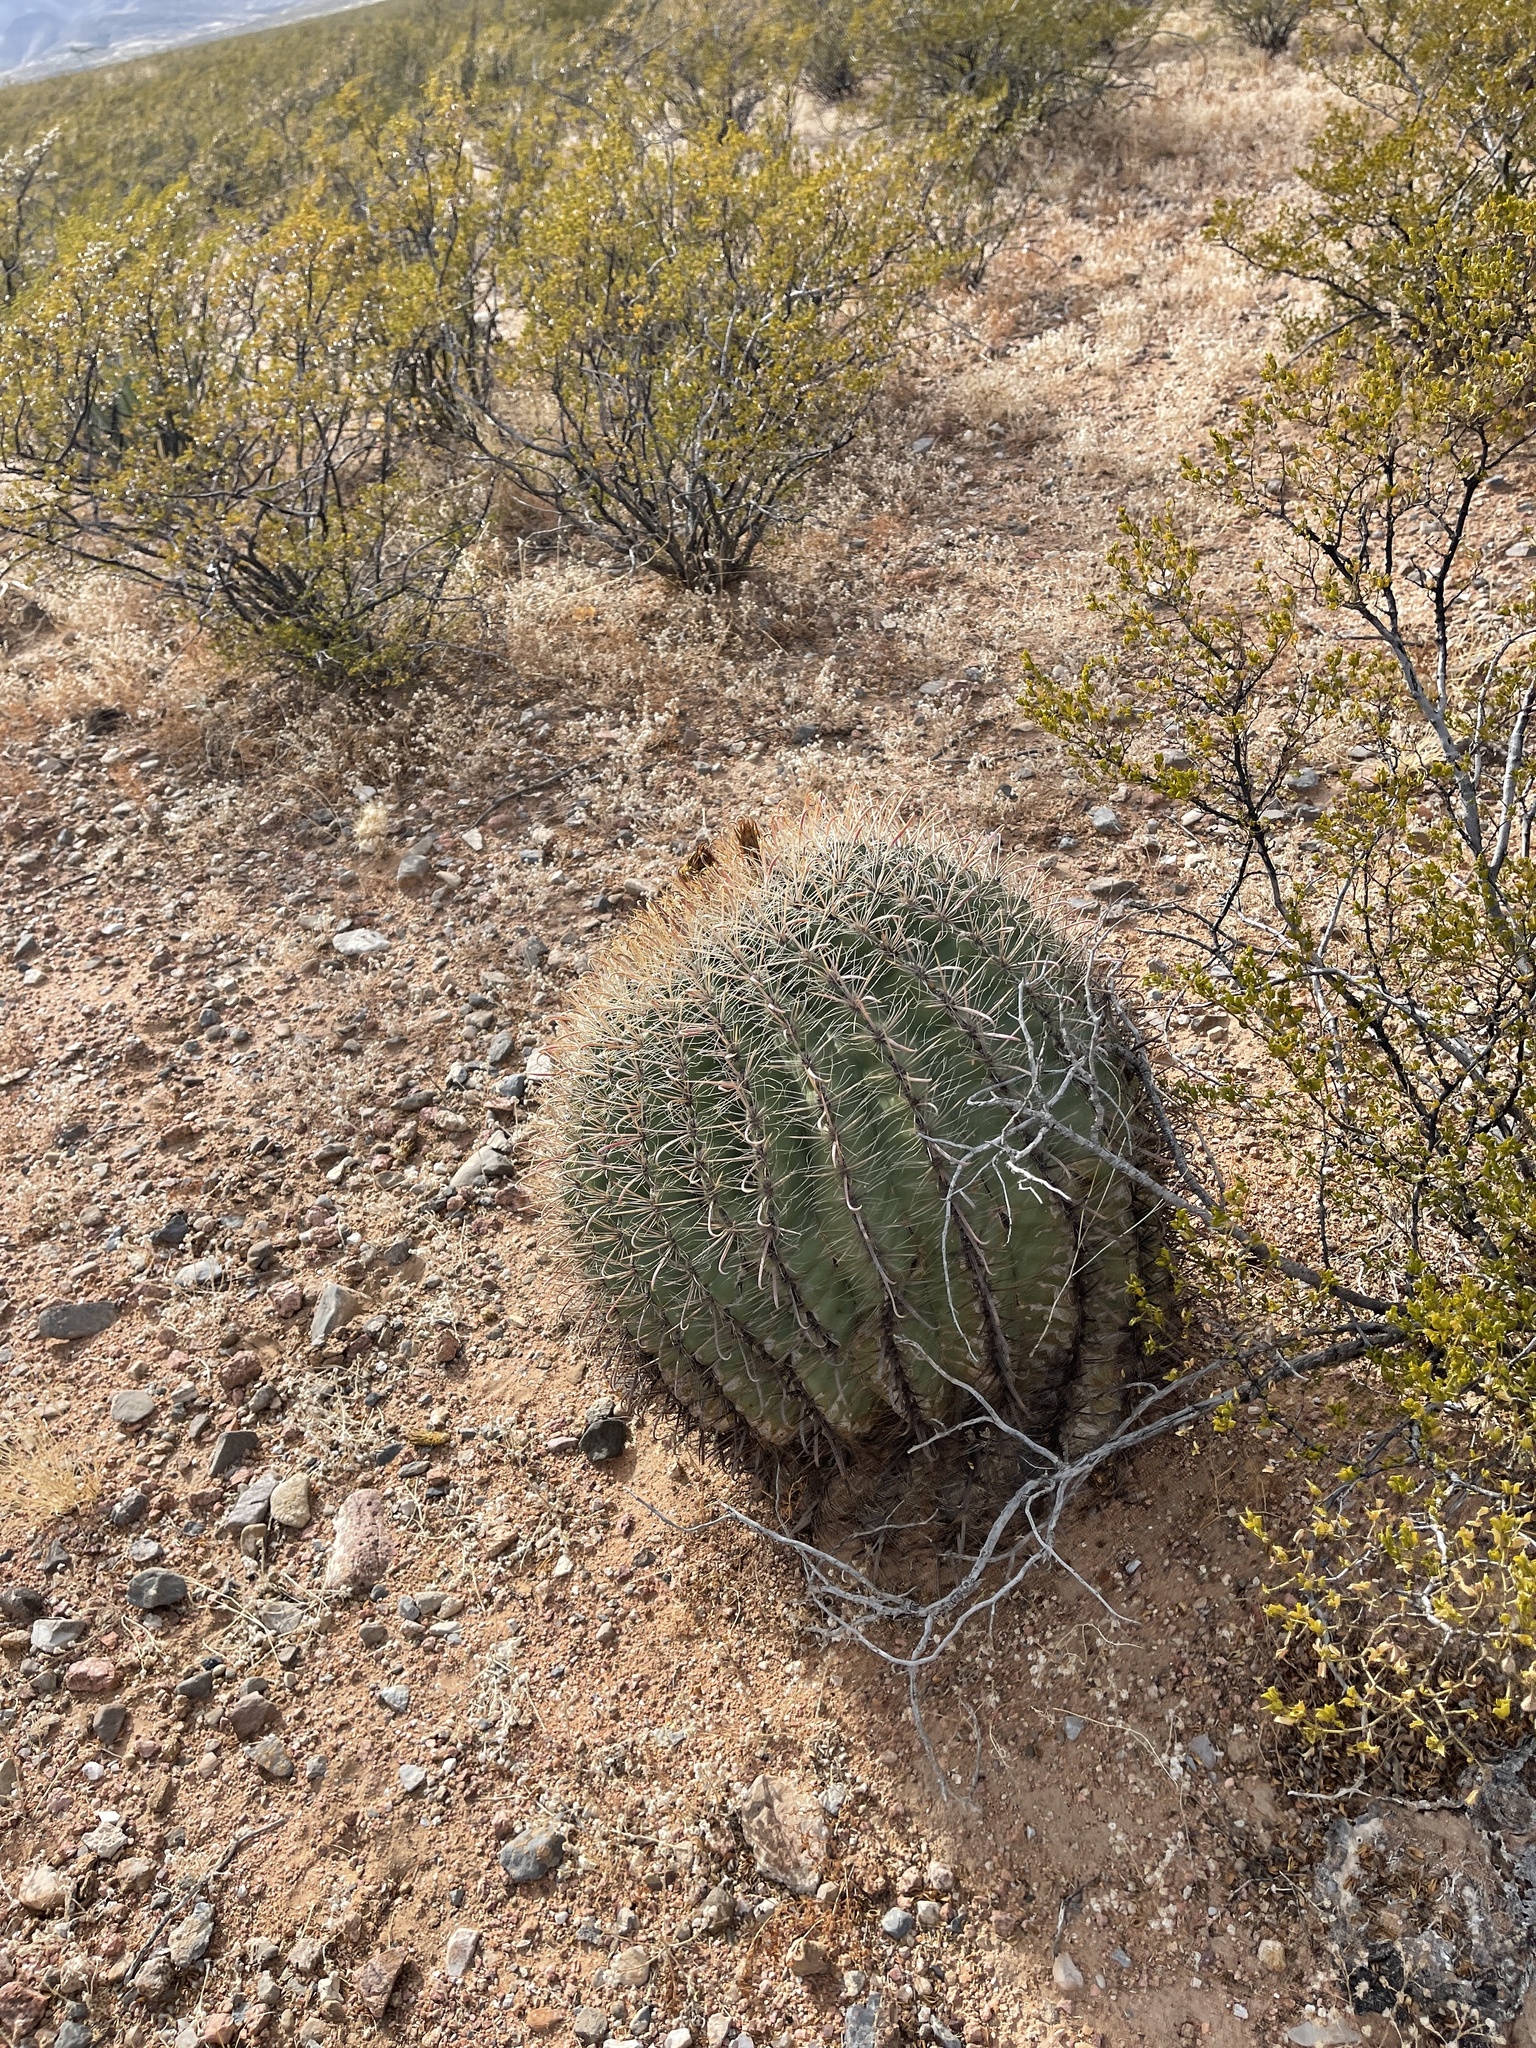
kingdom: Plantae
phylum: Tracheophyta
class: Magnoliopsida
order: Caryophyllales
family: Cactaceae
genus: Ferocactus
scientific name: Ferocactus wislizeni
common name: Candy barrel cactus
